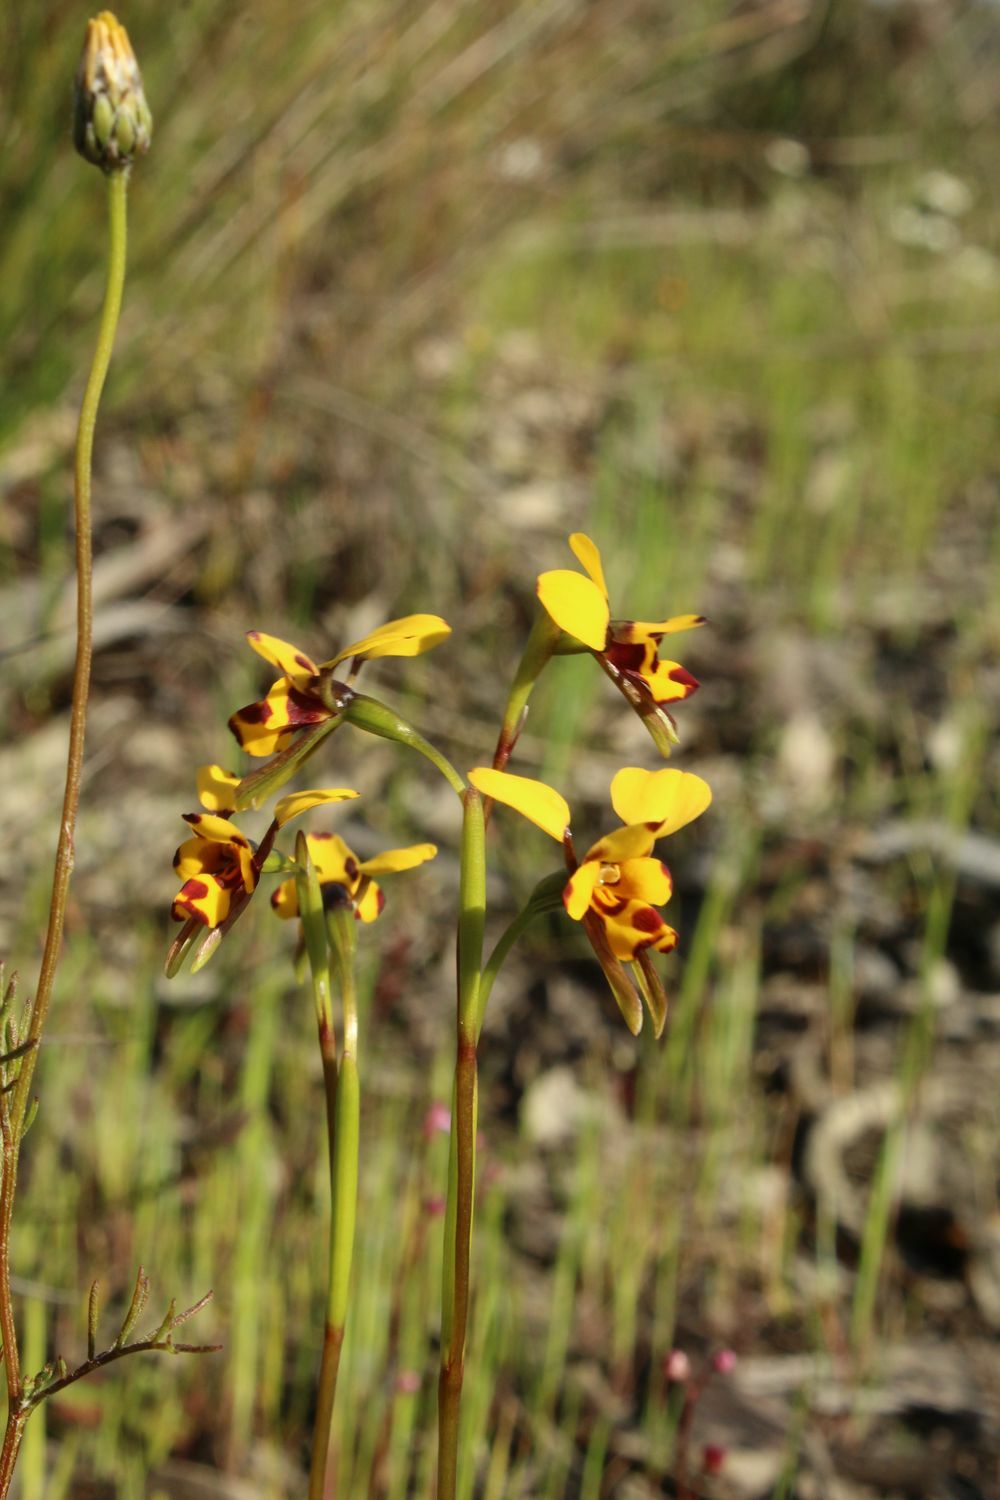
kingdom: Plantae
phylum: Tracheophyta
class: Liliopsida
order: Asparagales
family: Orchidaceae
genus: Diuris
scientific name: Diuris decrementum
